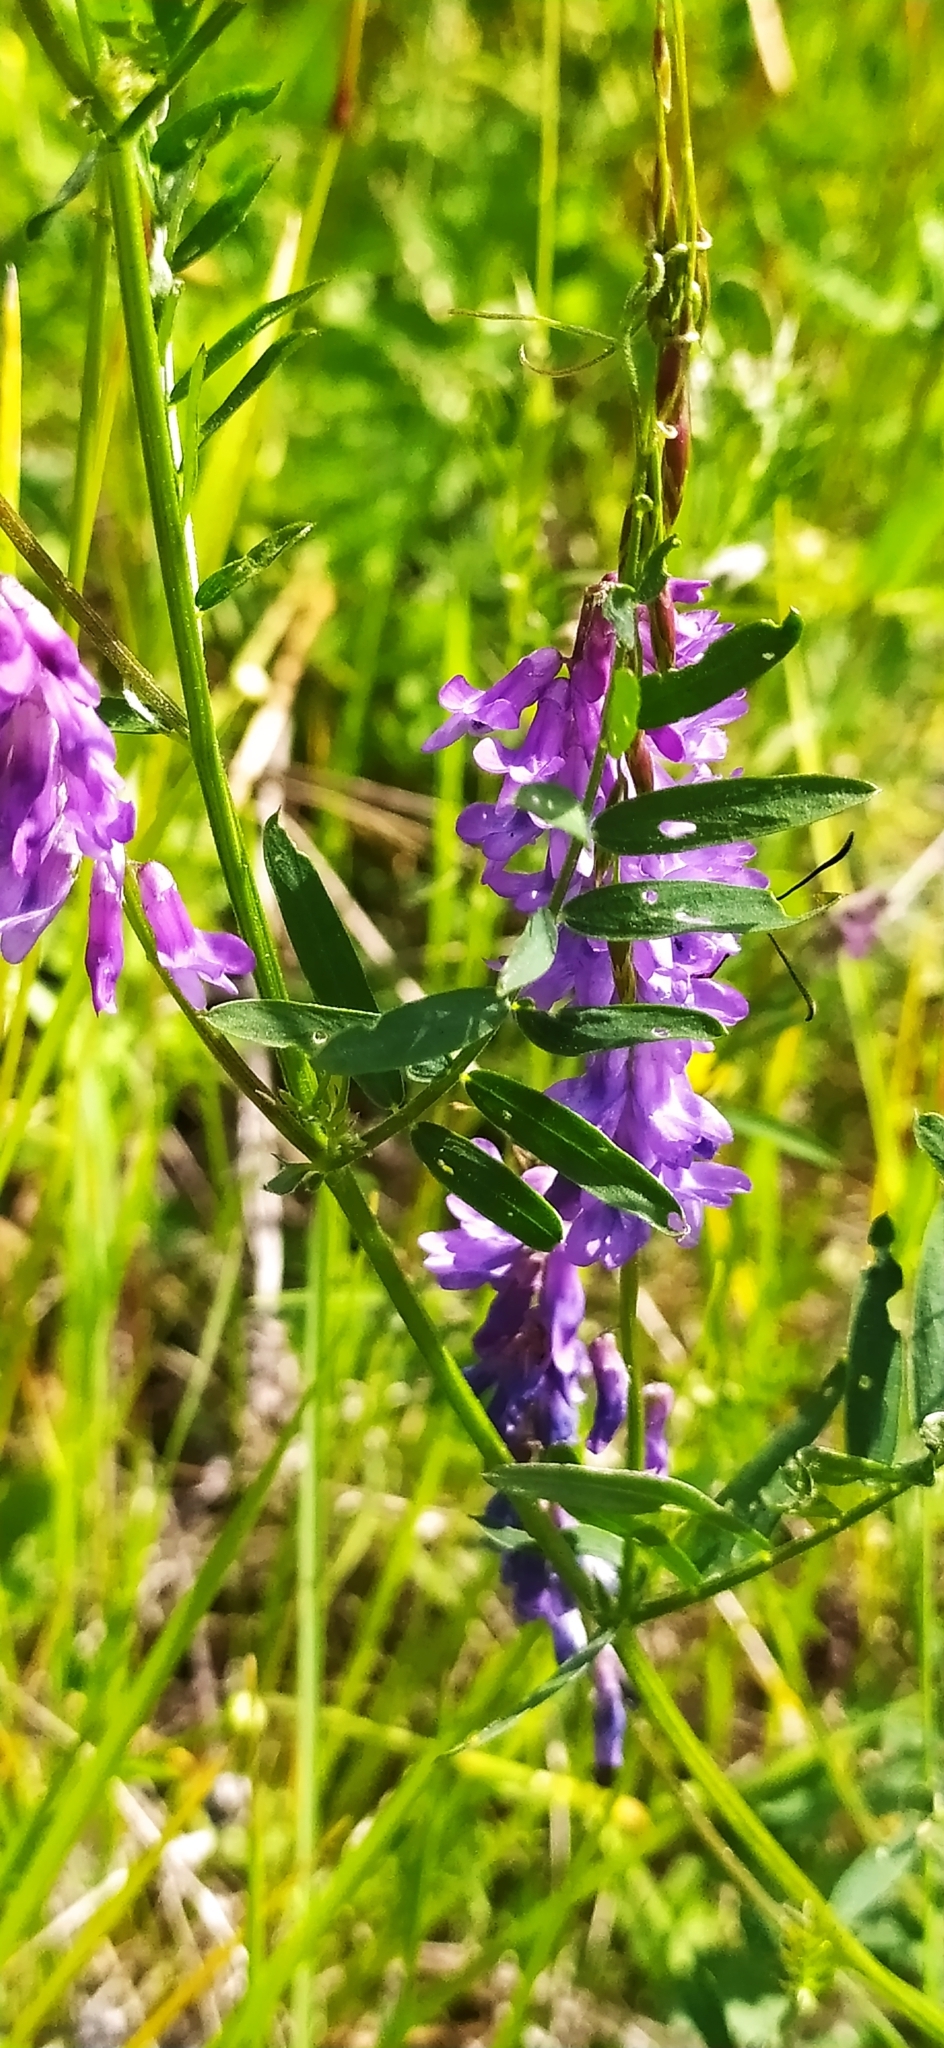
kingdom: Plantae
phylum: Tracheophyta
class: Magnoliopsida
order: Fabales
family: Fabaceae
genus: Vicia
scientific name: Vicia cracca
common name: Bird vetch
